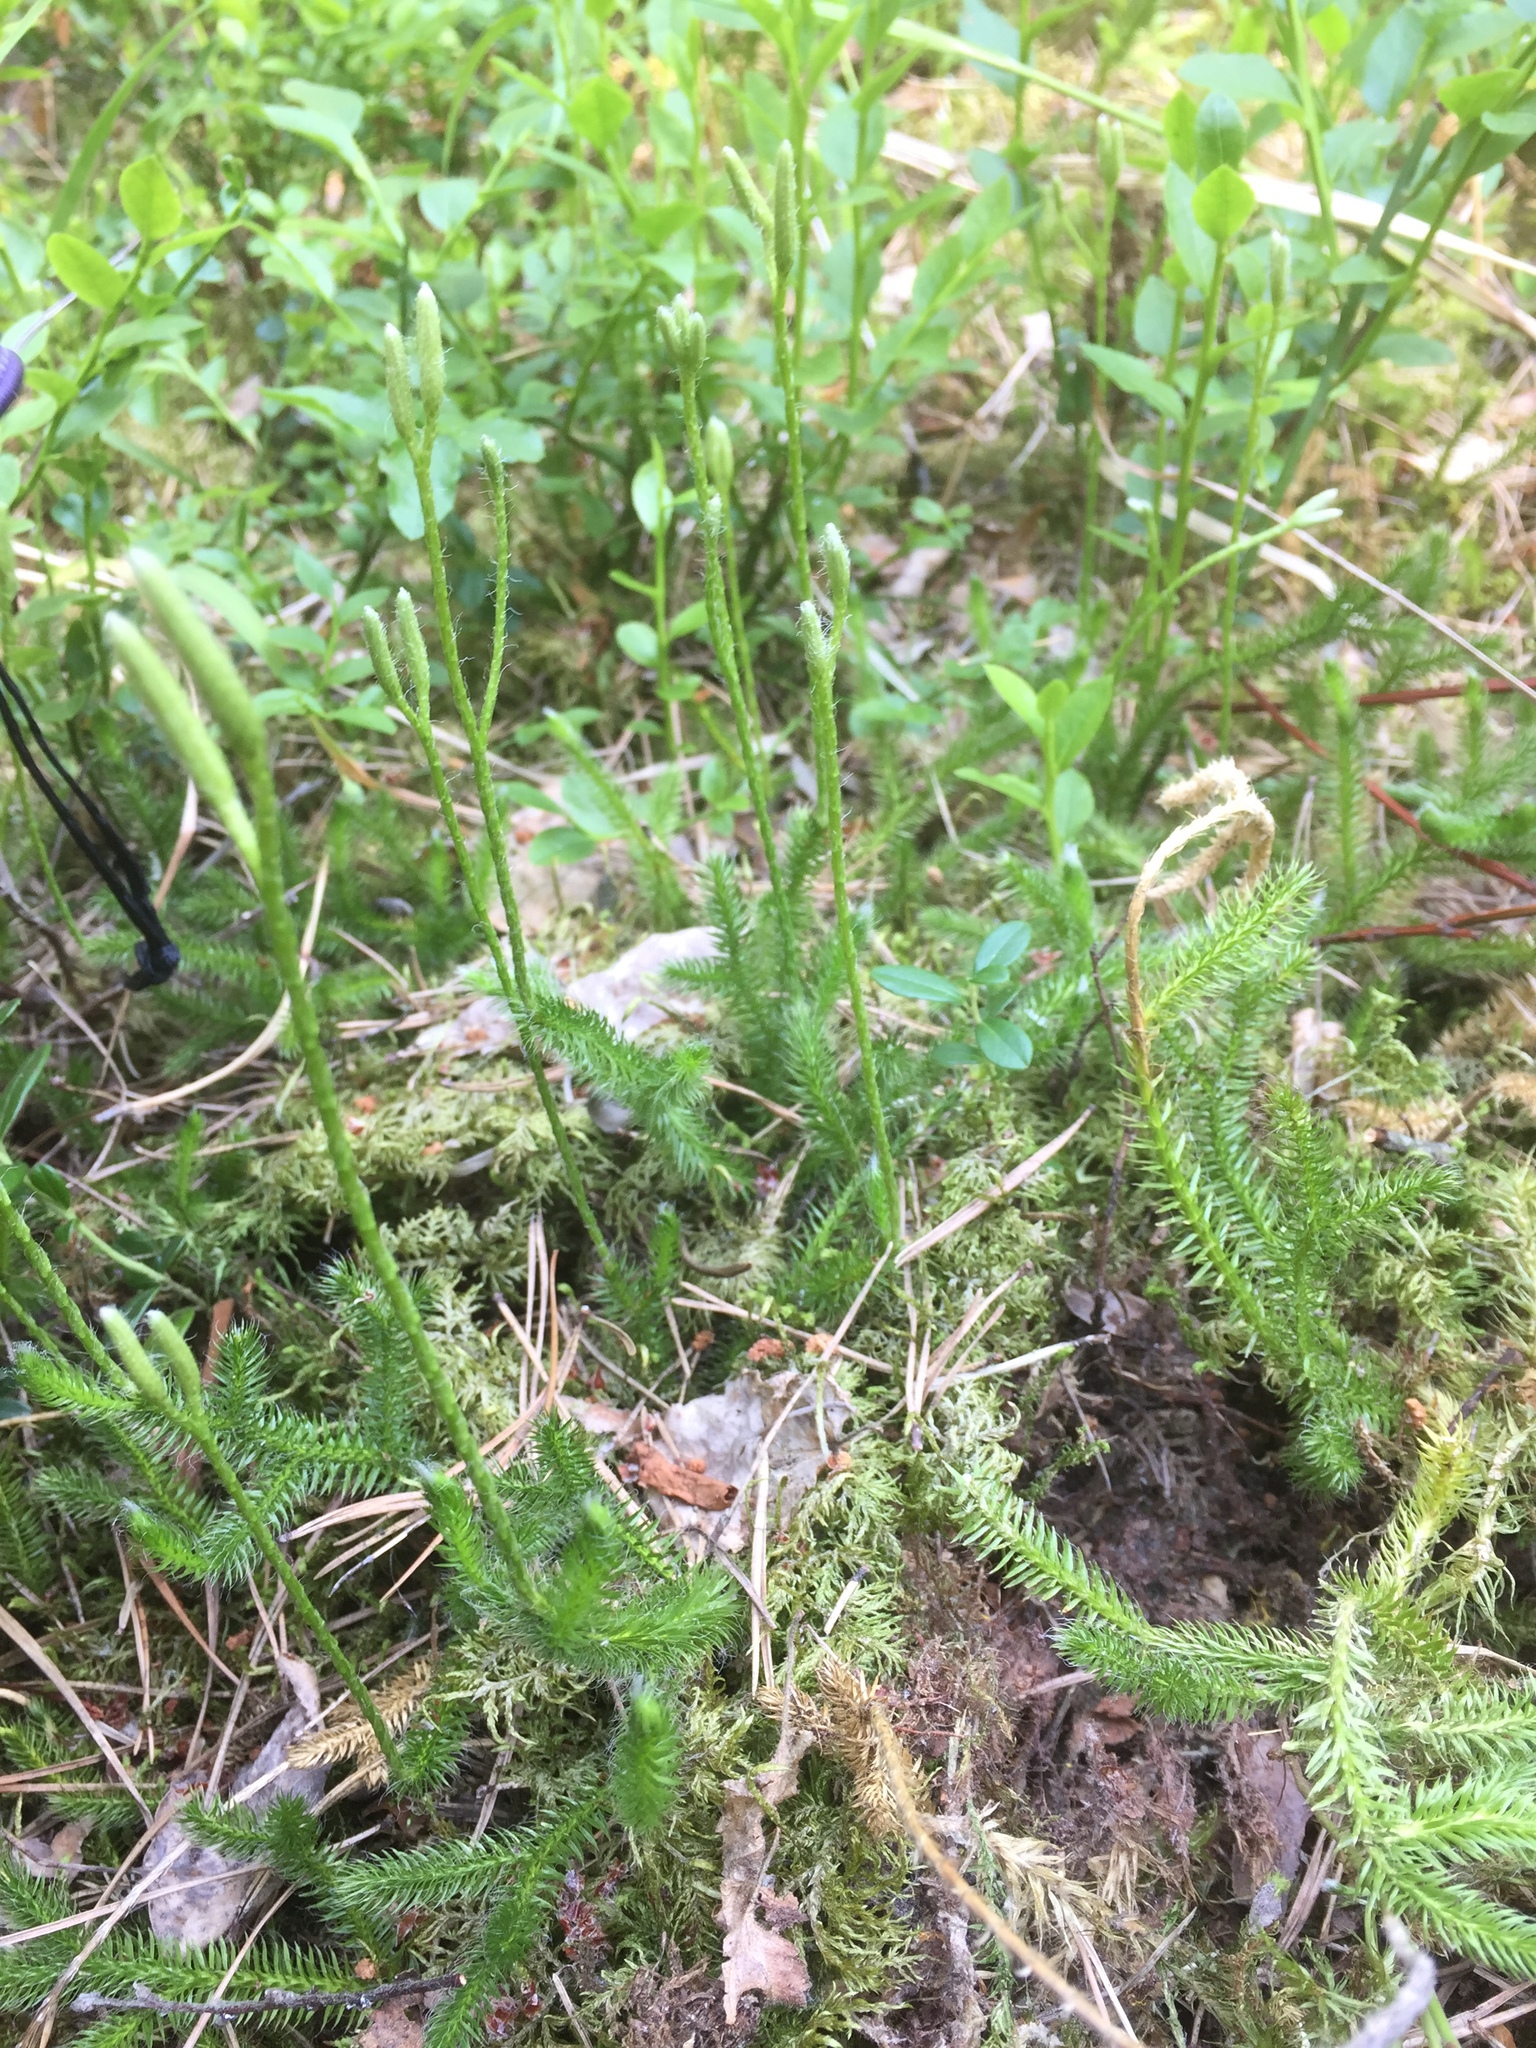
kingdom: Plantae
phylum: Tracheophyta
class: Lycopodiopsida
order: Lycopodiales
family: Lycopodiaceae
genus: Lycopodium
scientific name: Lycopodium clavatum
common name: Stag's-horn clubmoss
